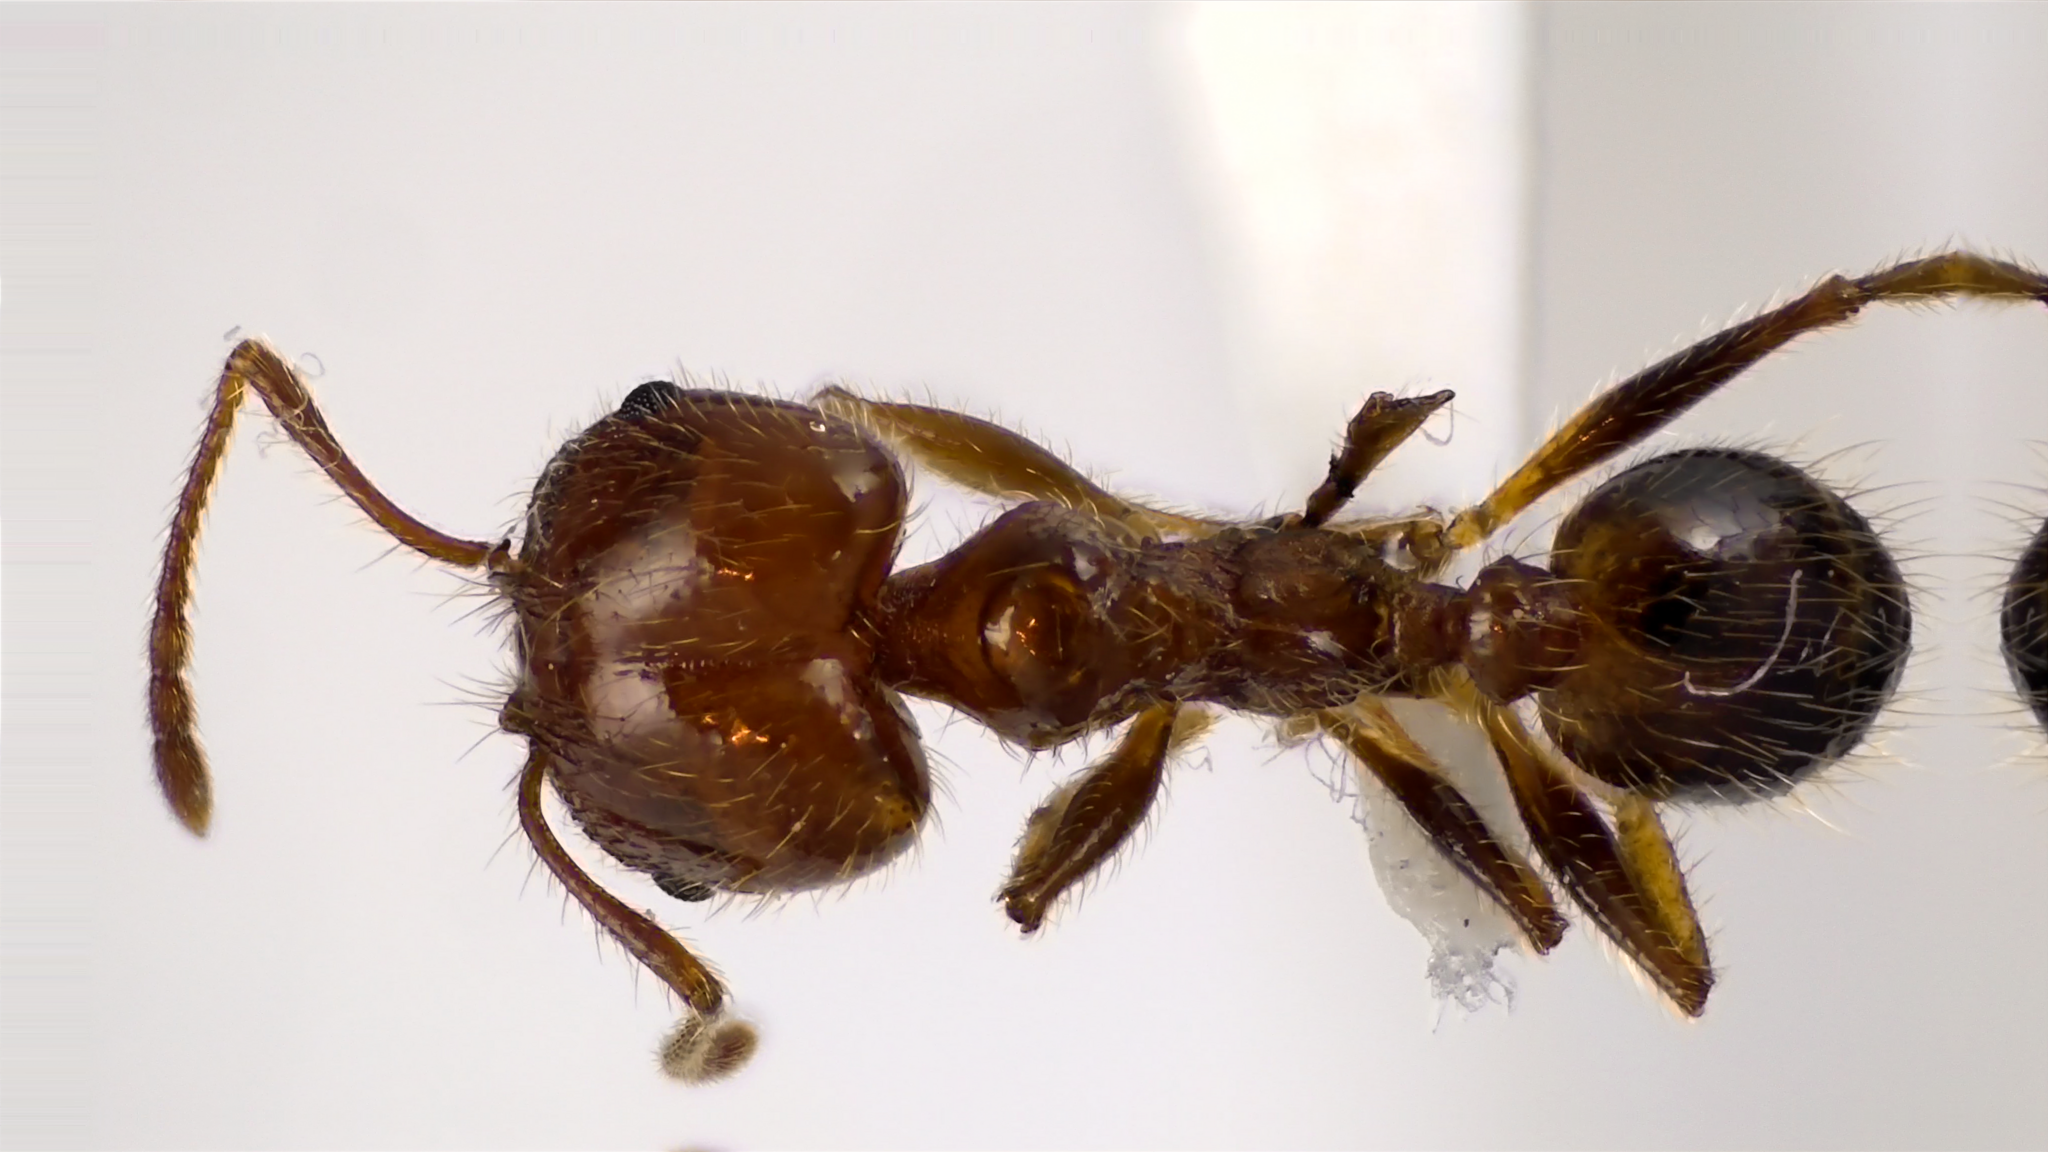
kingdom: Animalia
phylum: Arthropoda
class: Insecta
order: Hymenoptera
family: Formicidae
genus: Pheidole
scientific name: Pheidole dentata
